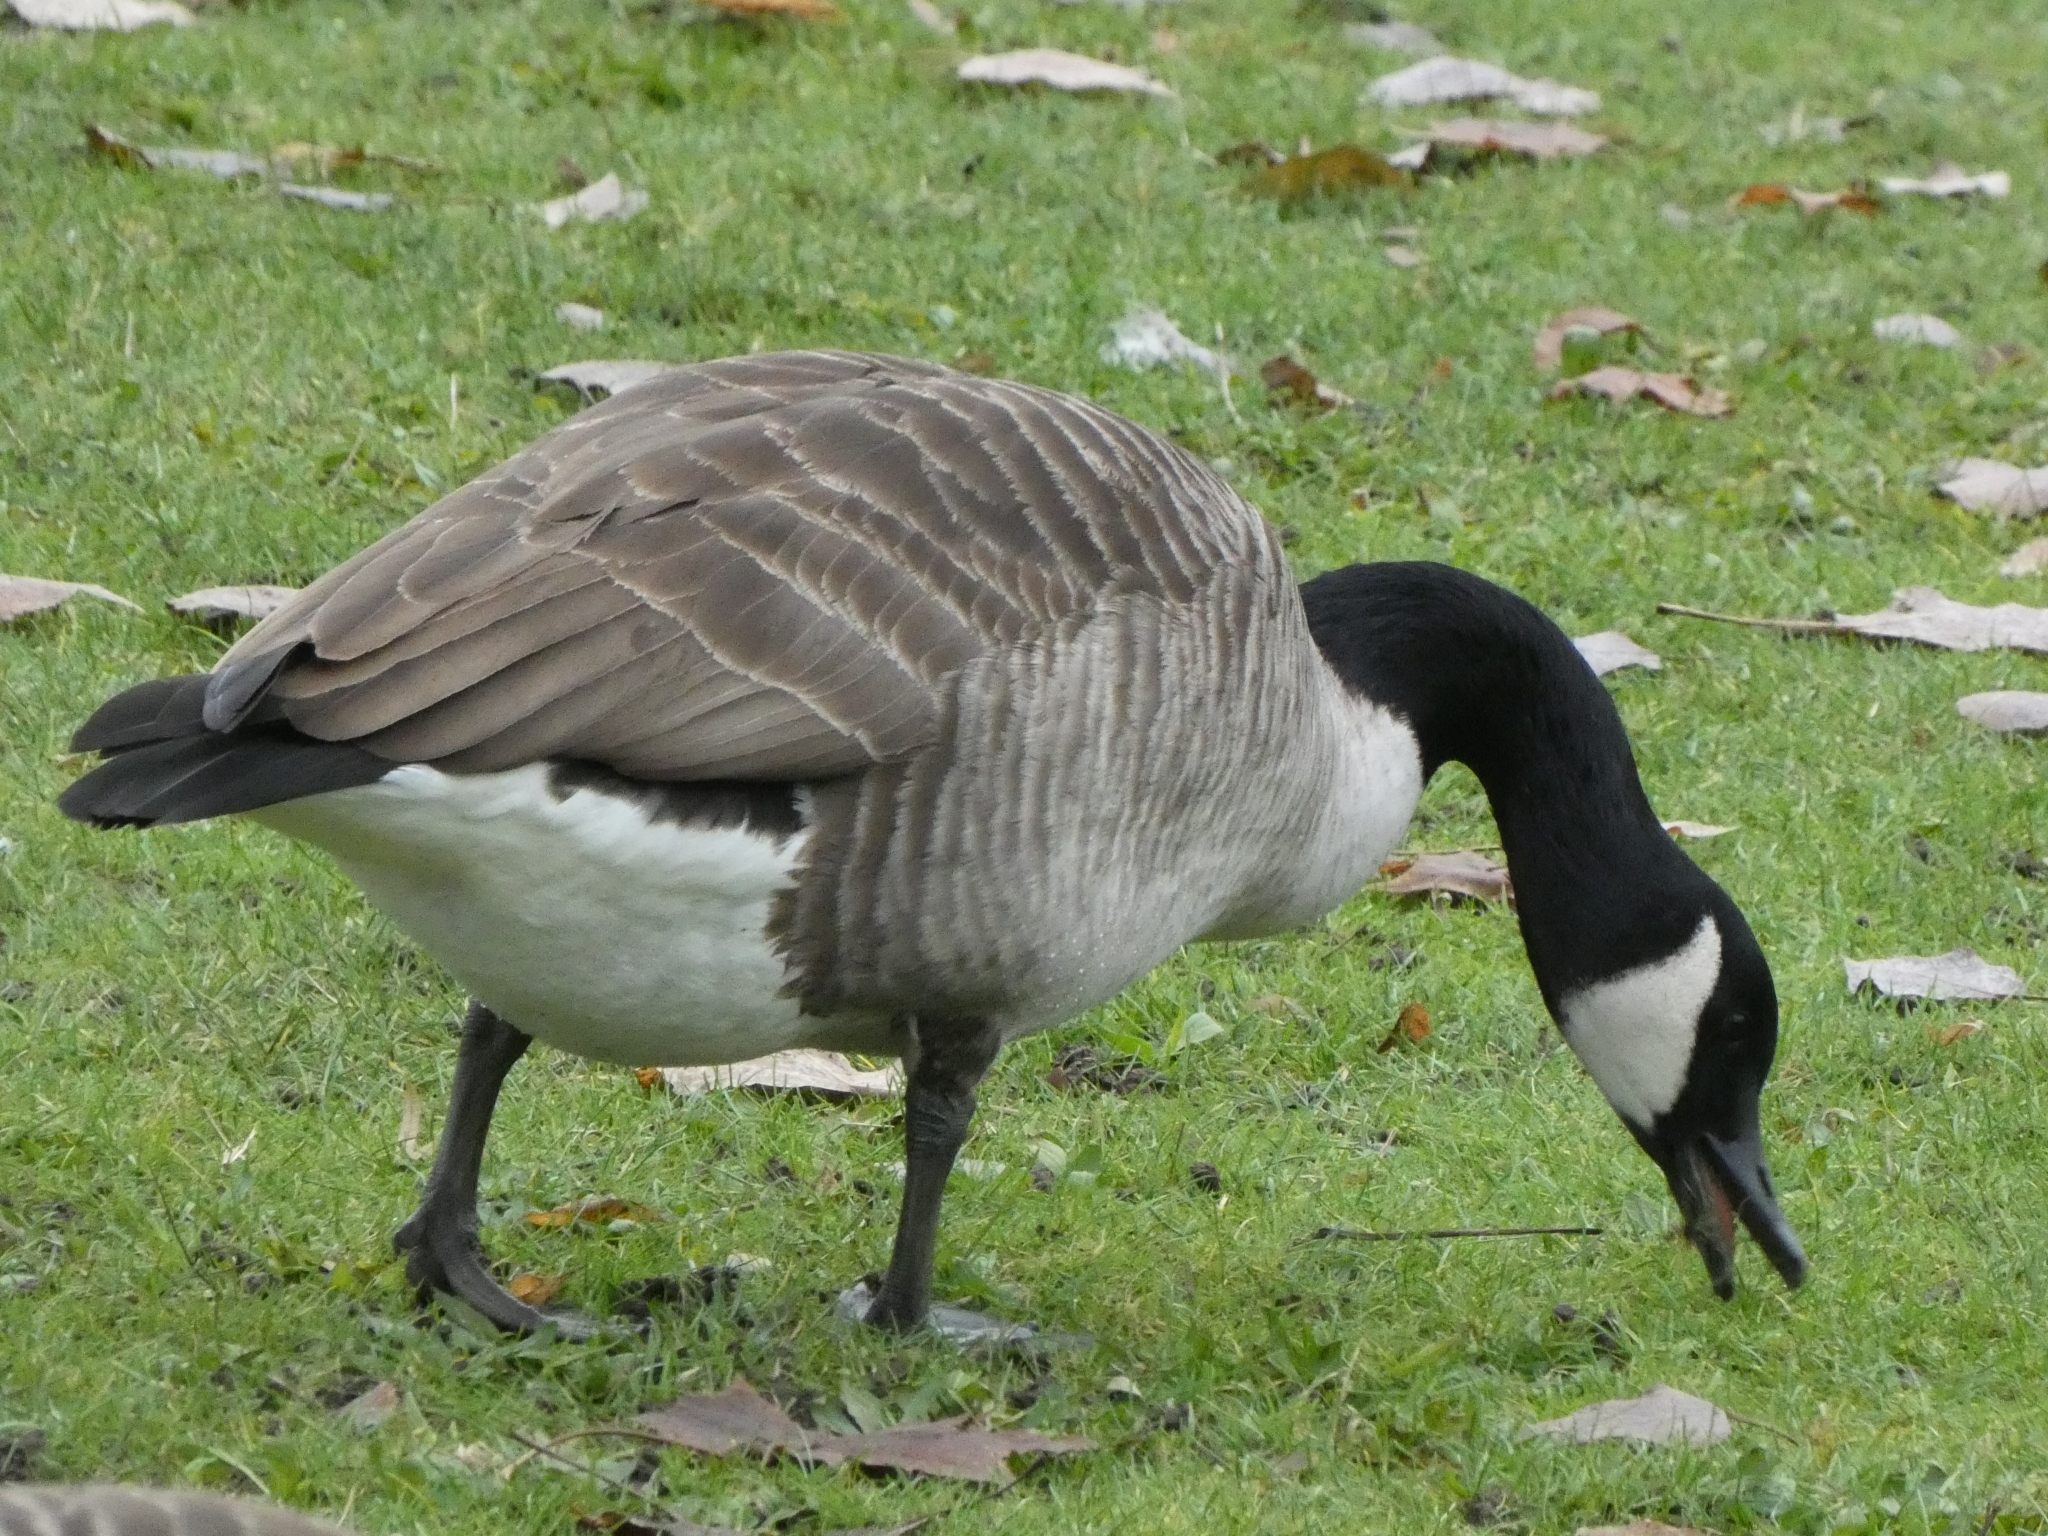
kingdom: Animalia
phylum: Chordata
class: Aves
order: Anseriformes
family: Anatidae
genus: Branta
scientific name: Branta canadensis
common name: Canada goose
